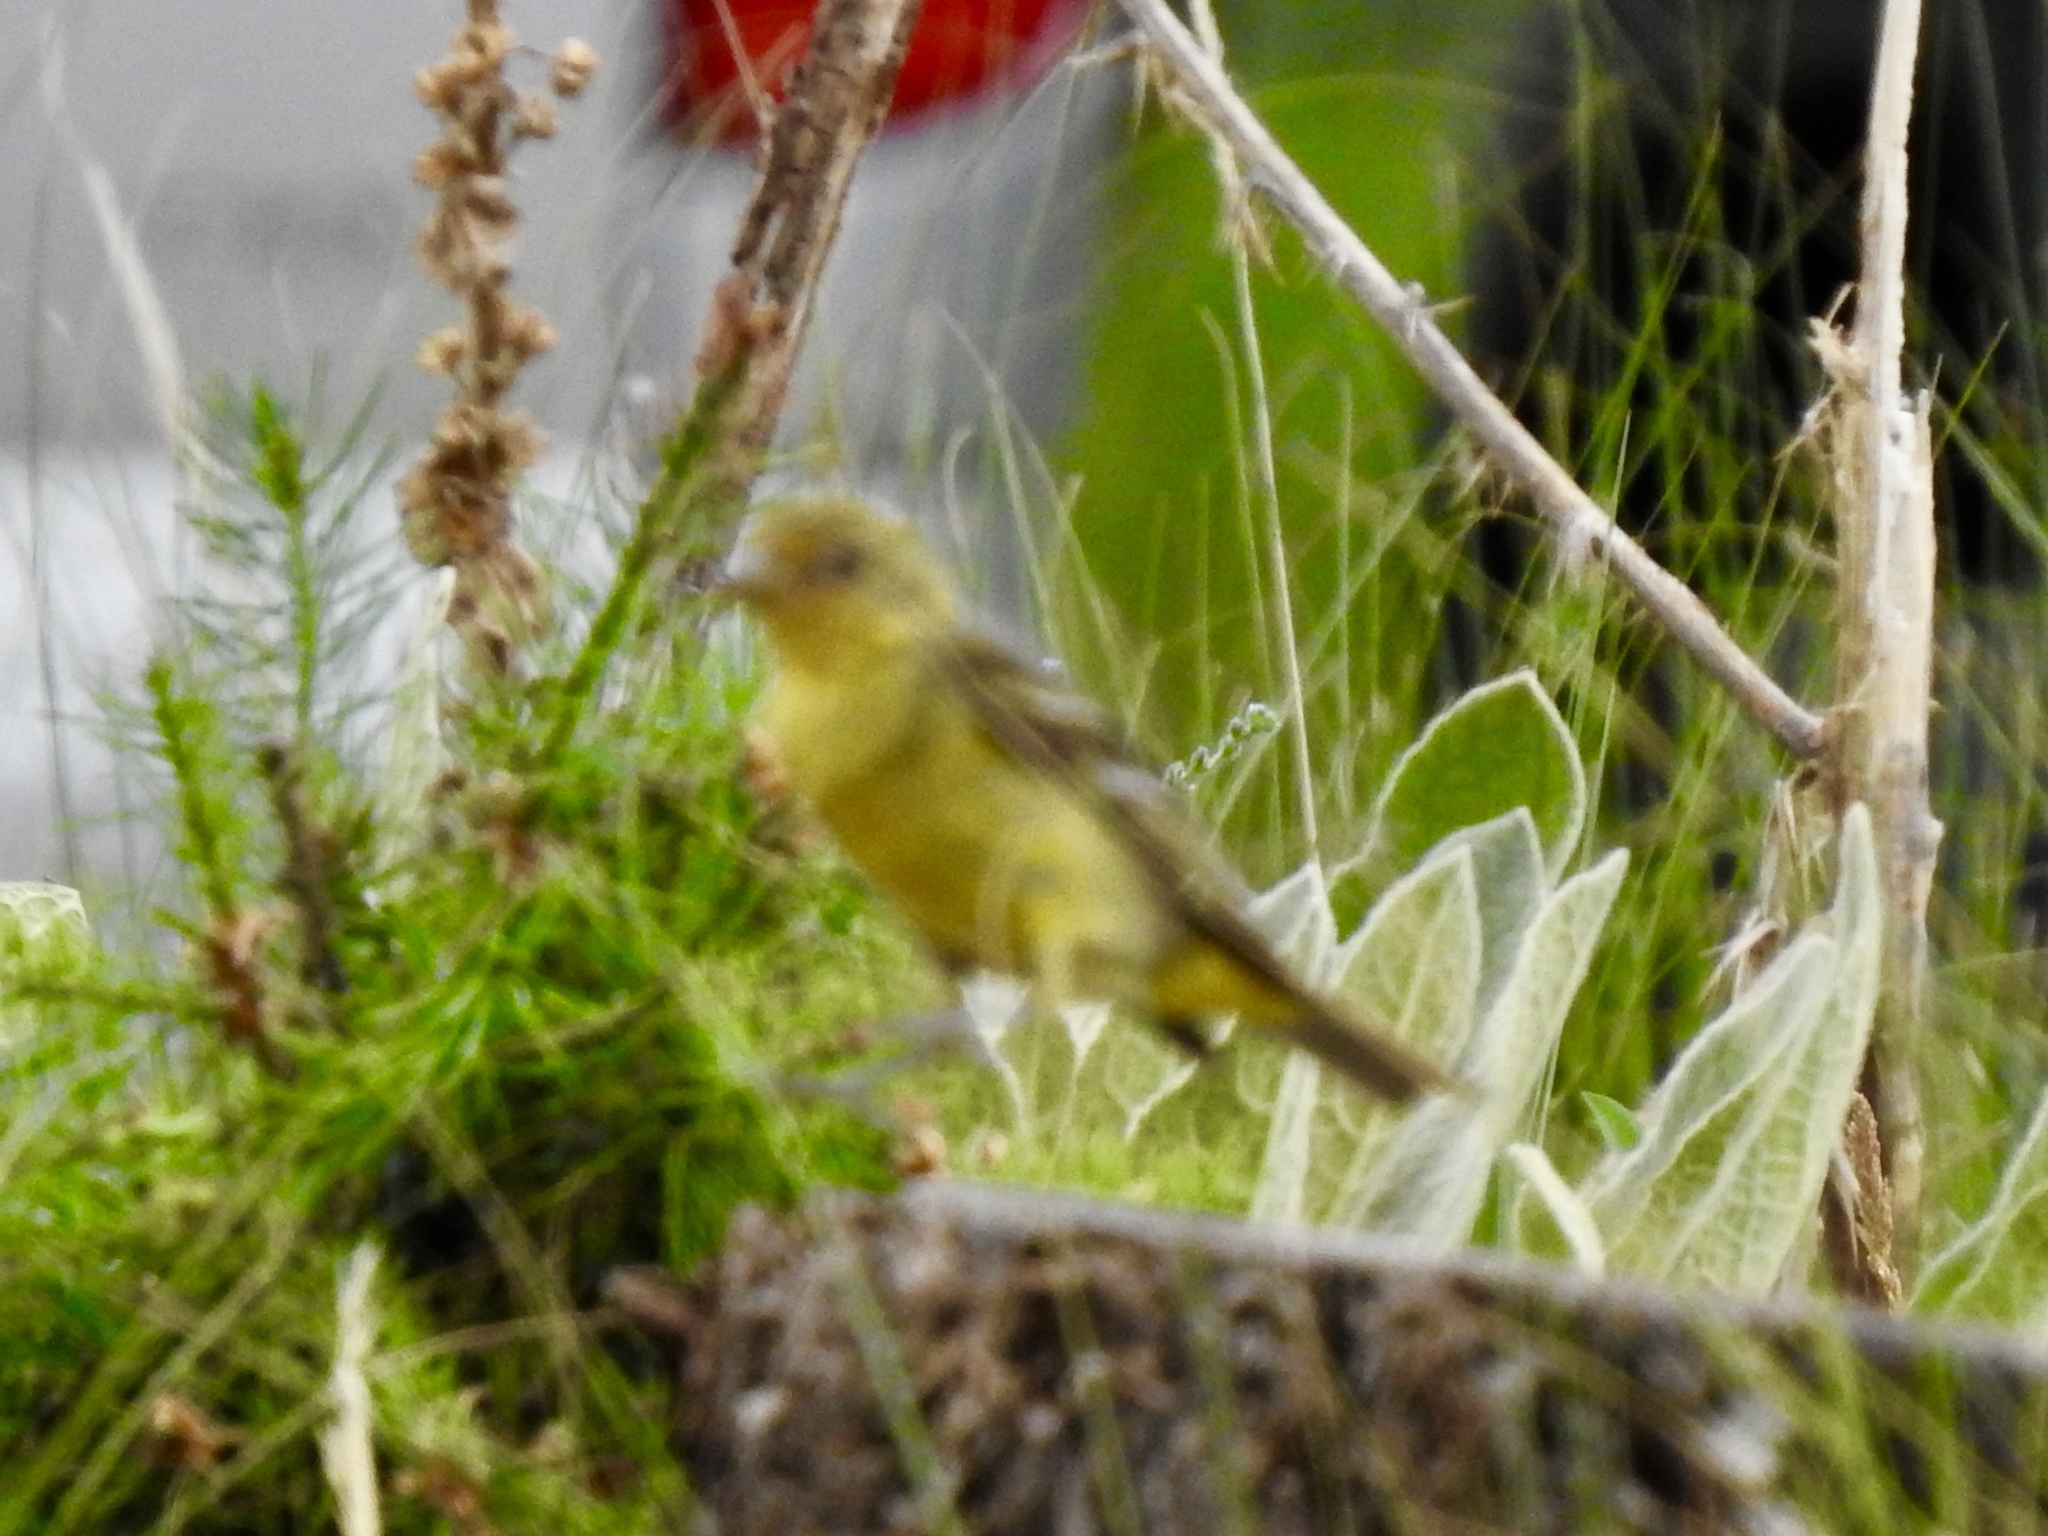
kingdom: Animalia
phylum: Chordata
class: Aves
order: Passeriformes
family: Cardinalidae
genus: Piranga
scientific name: Piranga ludoviciana
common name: Western tanager
